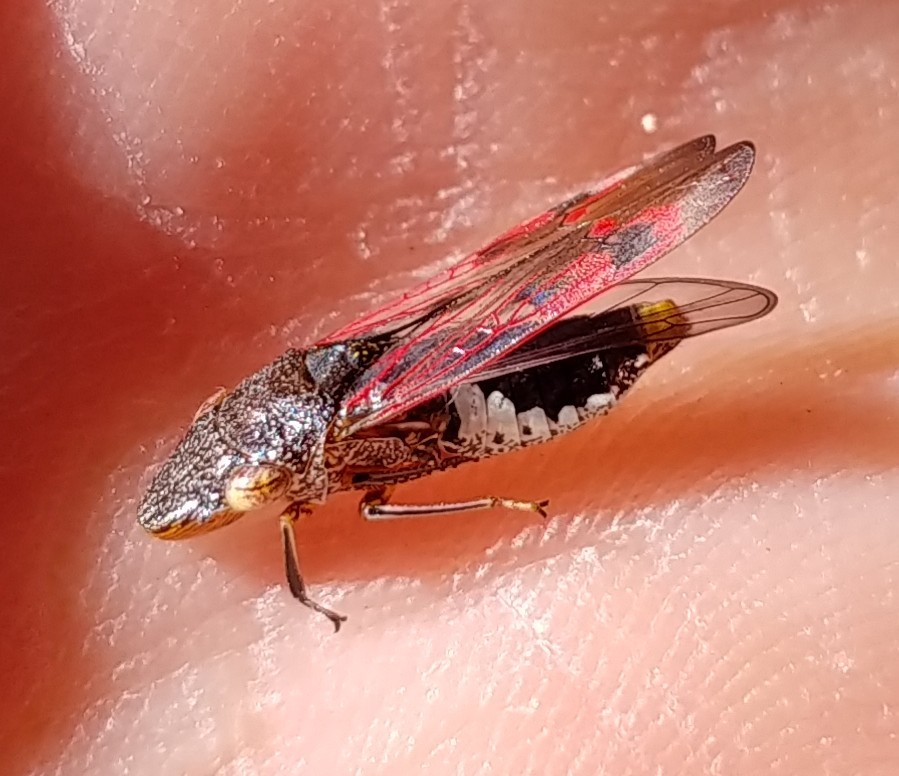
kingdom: Animalia
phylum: Arthropoda
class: Insecta
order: Hemiptera
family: Cicadellidae
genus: Homalodisca
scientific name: Homalodisca vitripennis
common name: Glassy-winged sharpshooter
